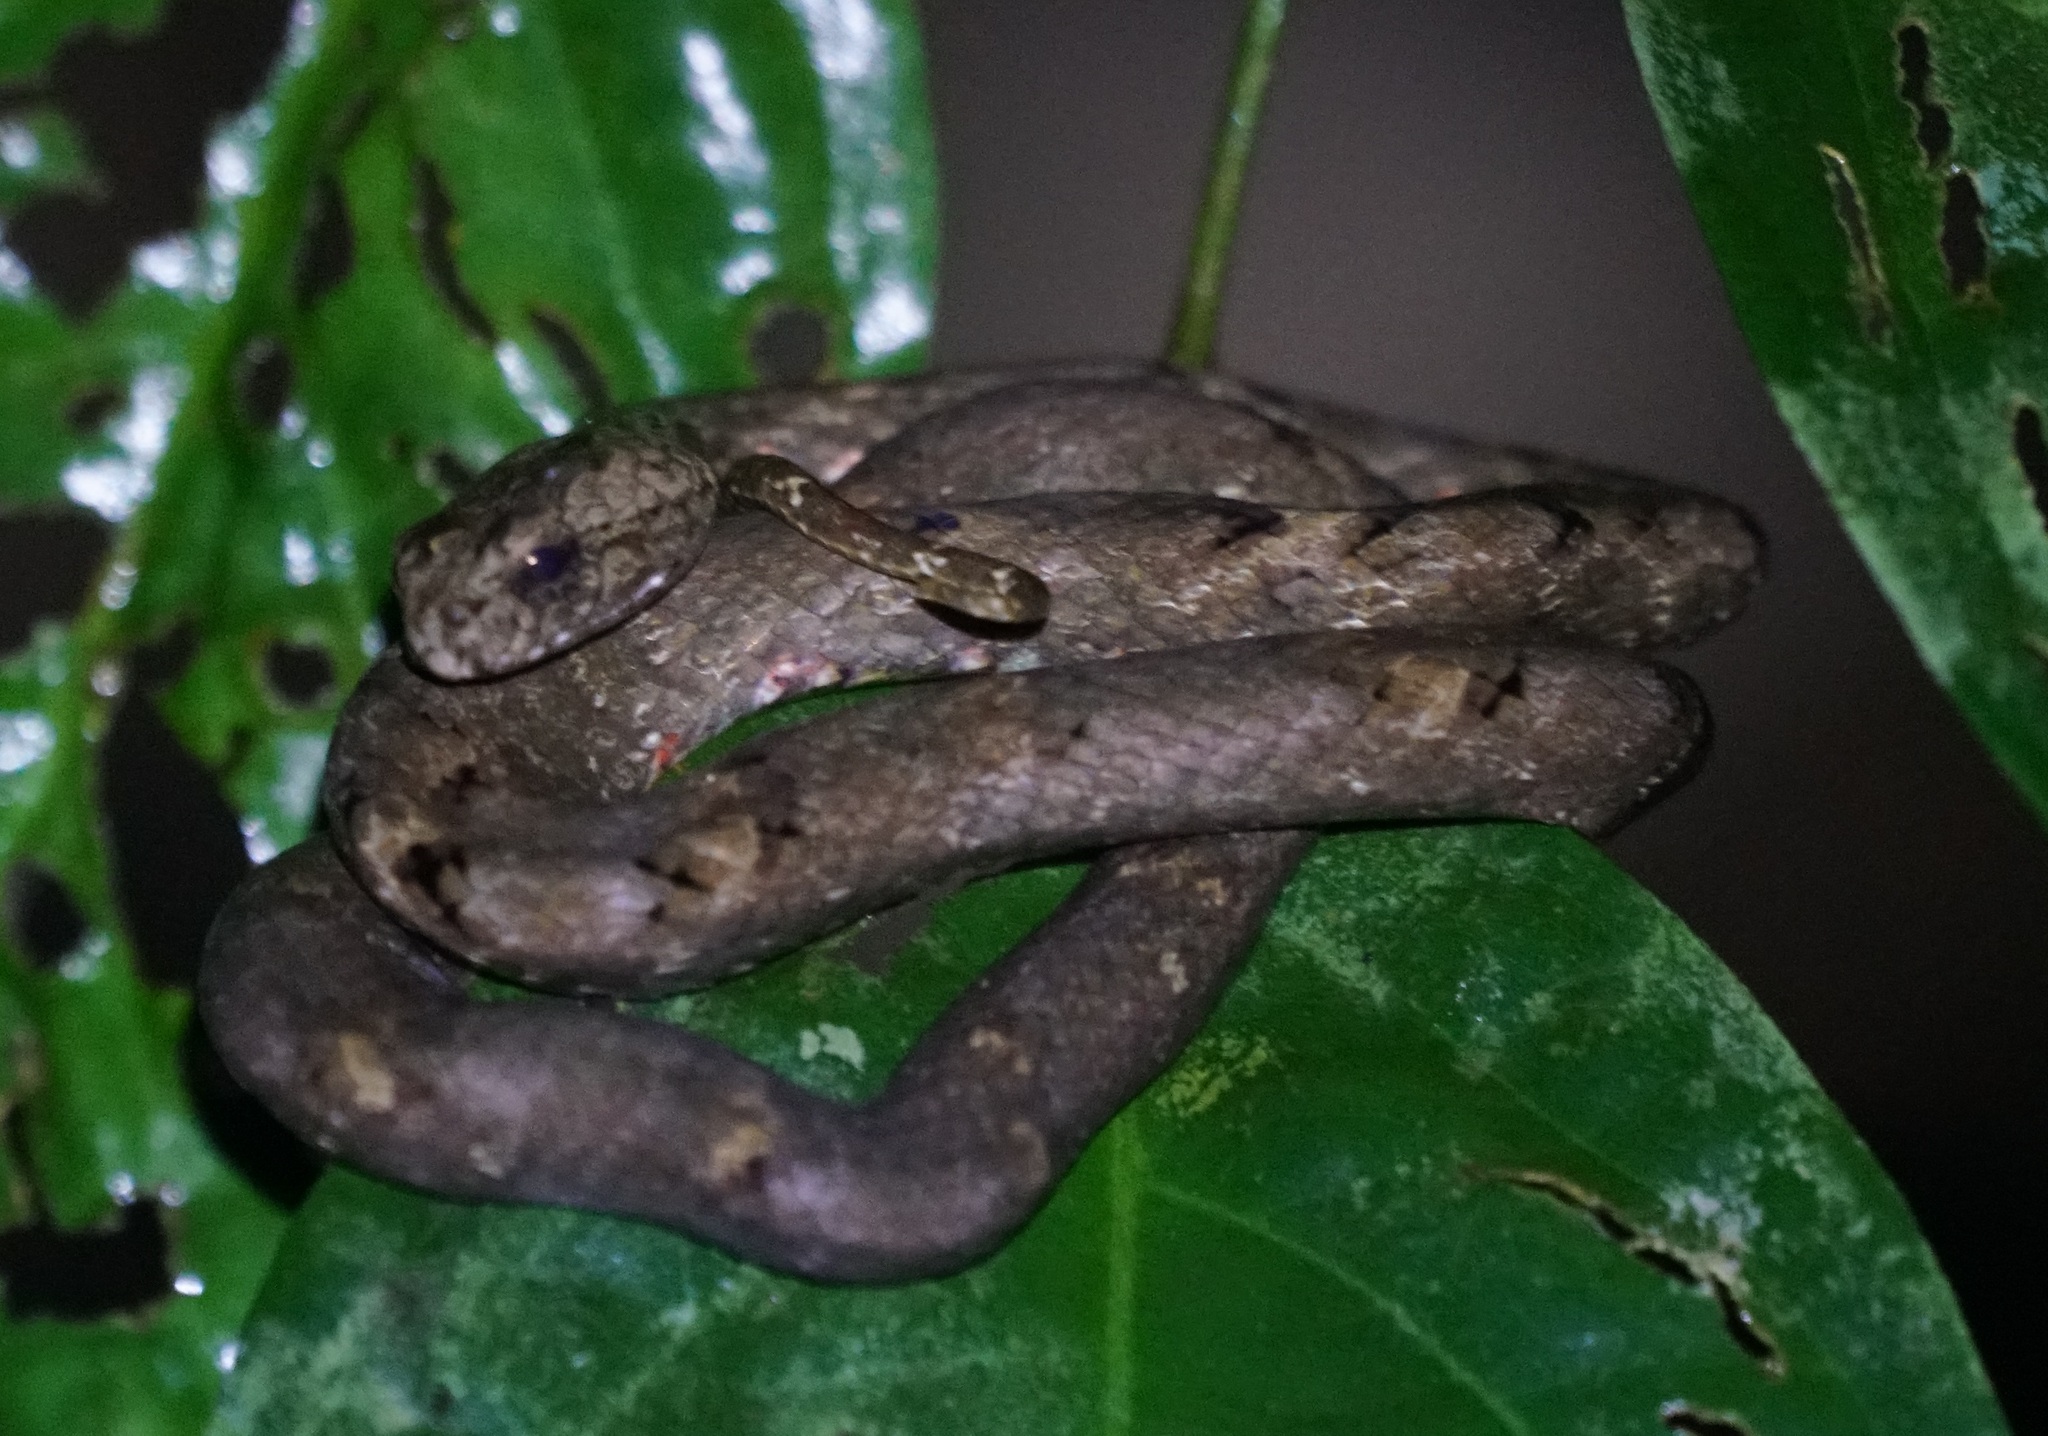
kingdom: Animalia
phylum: Chordata
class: Squamata
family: Pseudaspididae
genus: Psammodynastes
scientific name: Psammodynastes pulverulentus
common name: Common mock viper
